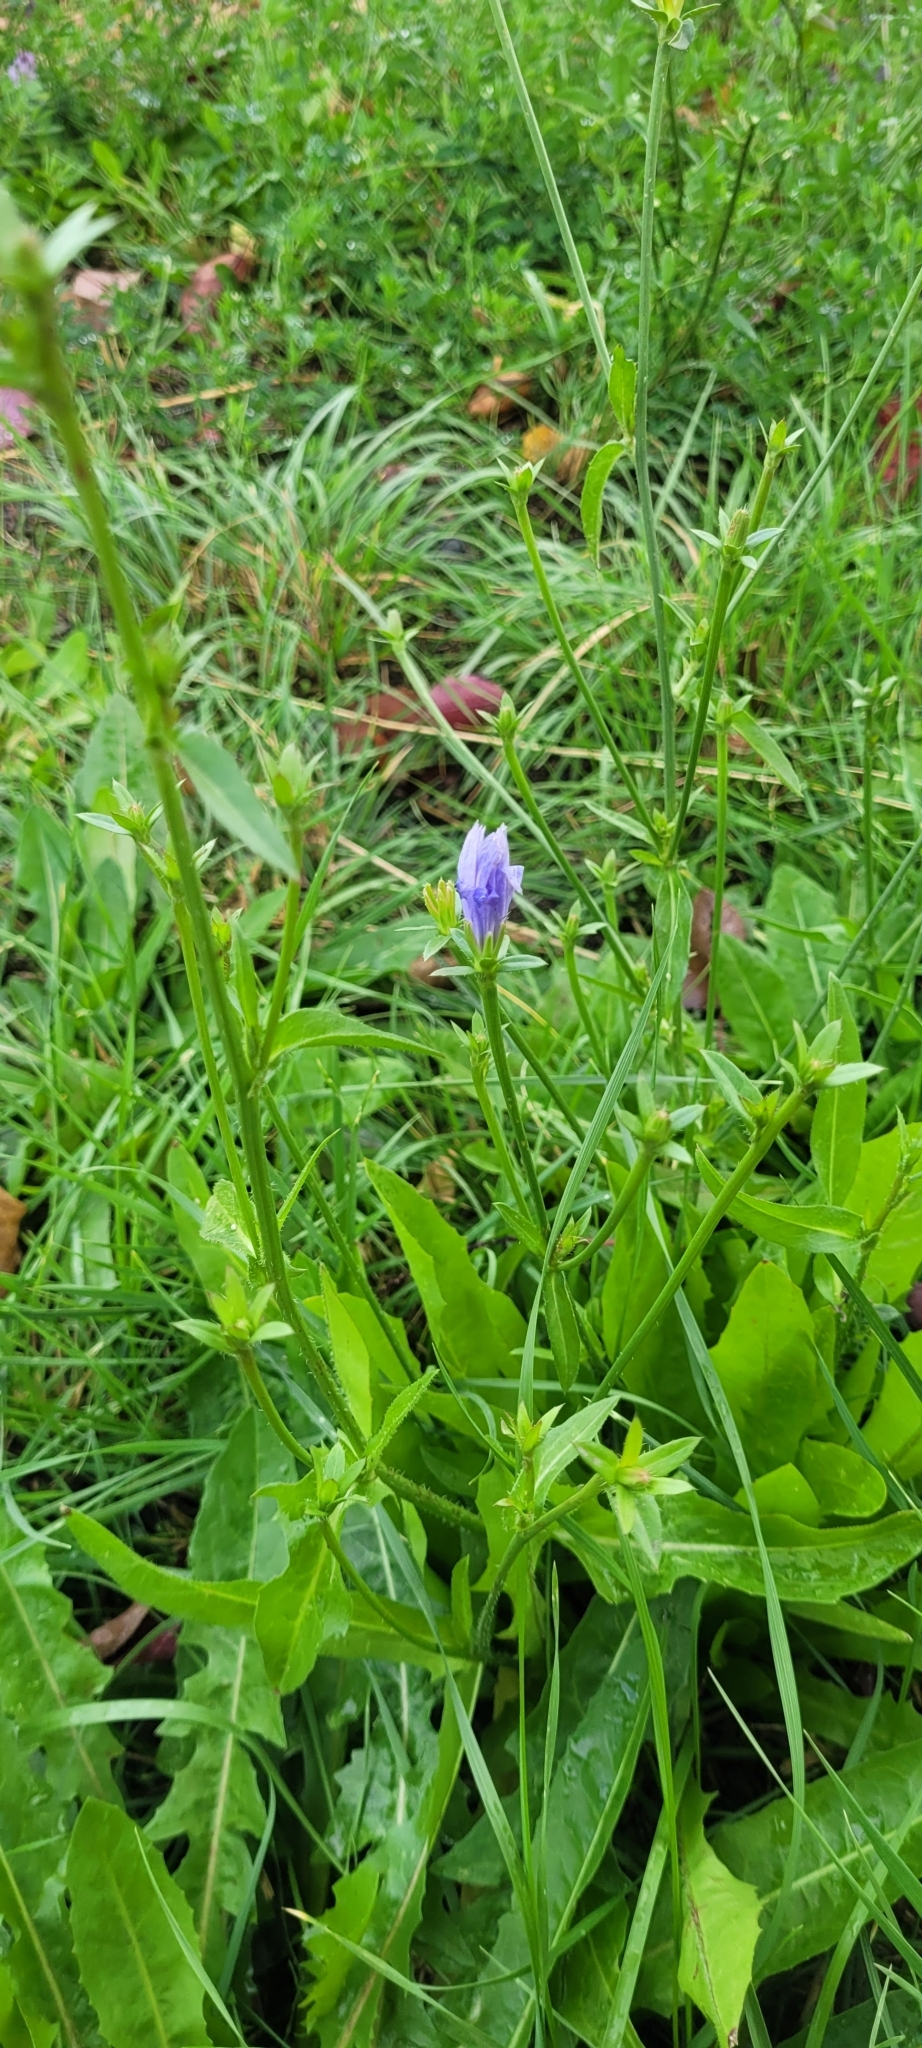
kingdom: Plantae
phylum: Tracheophyta
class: Magnoliopsida
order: Asterales
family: Asteraceae
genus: Cichorium
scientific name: Cichorium intybus
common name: Chicory
